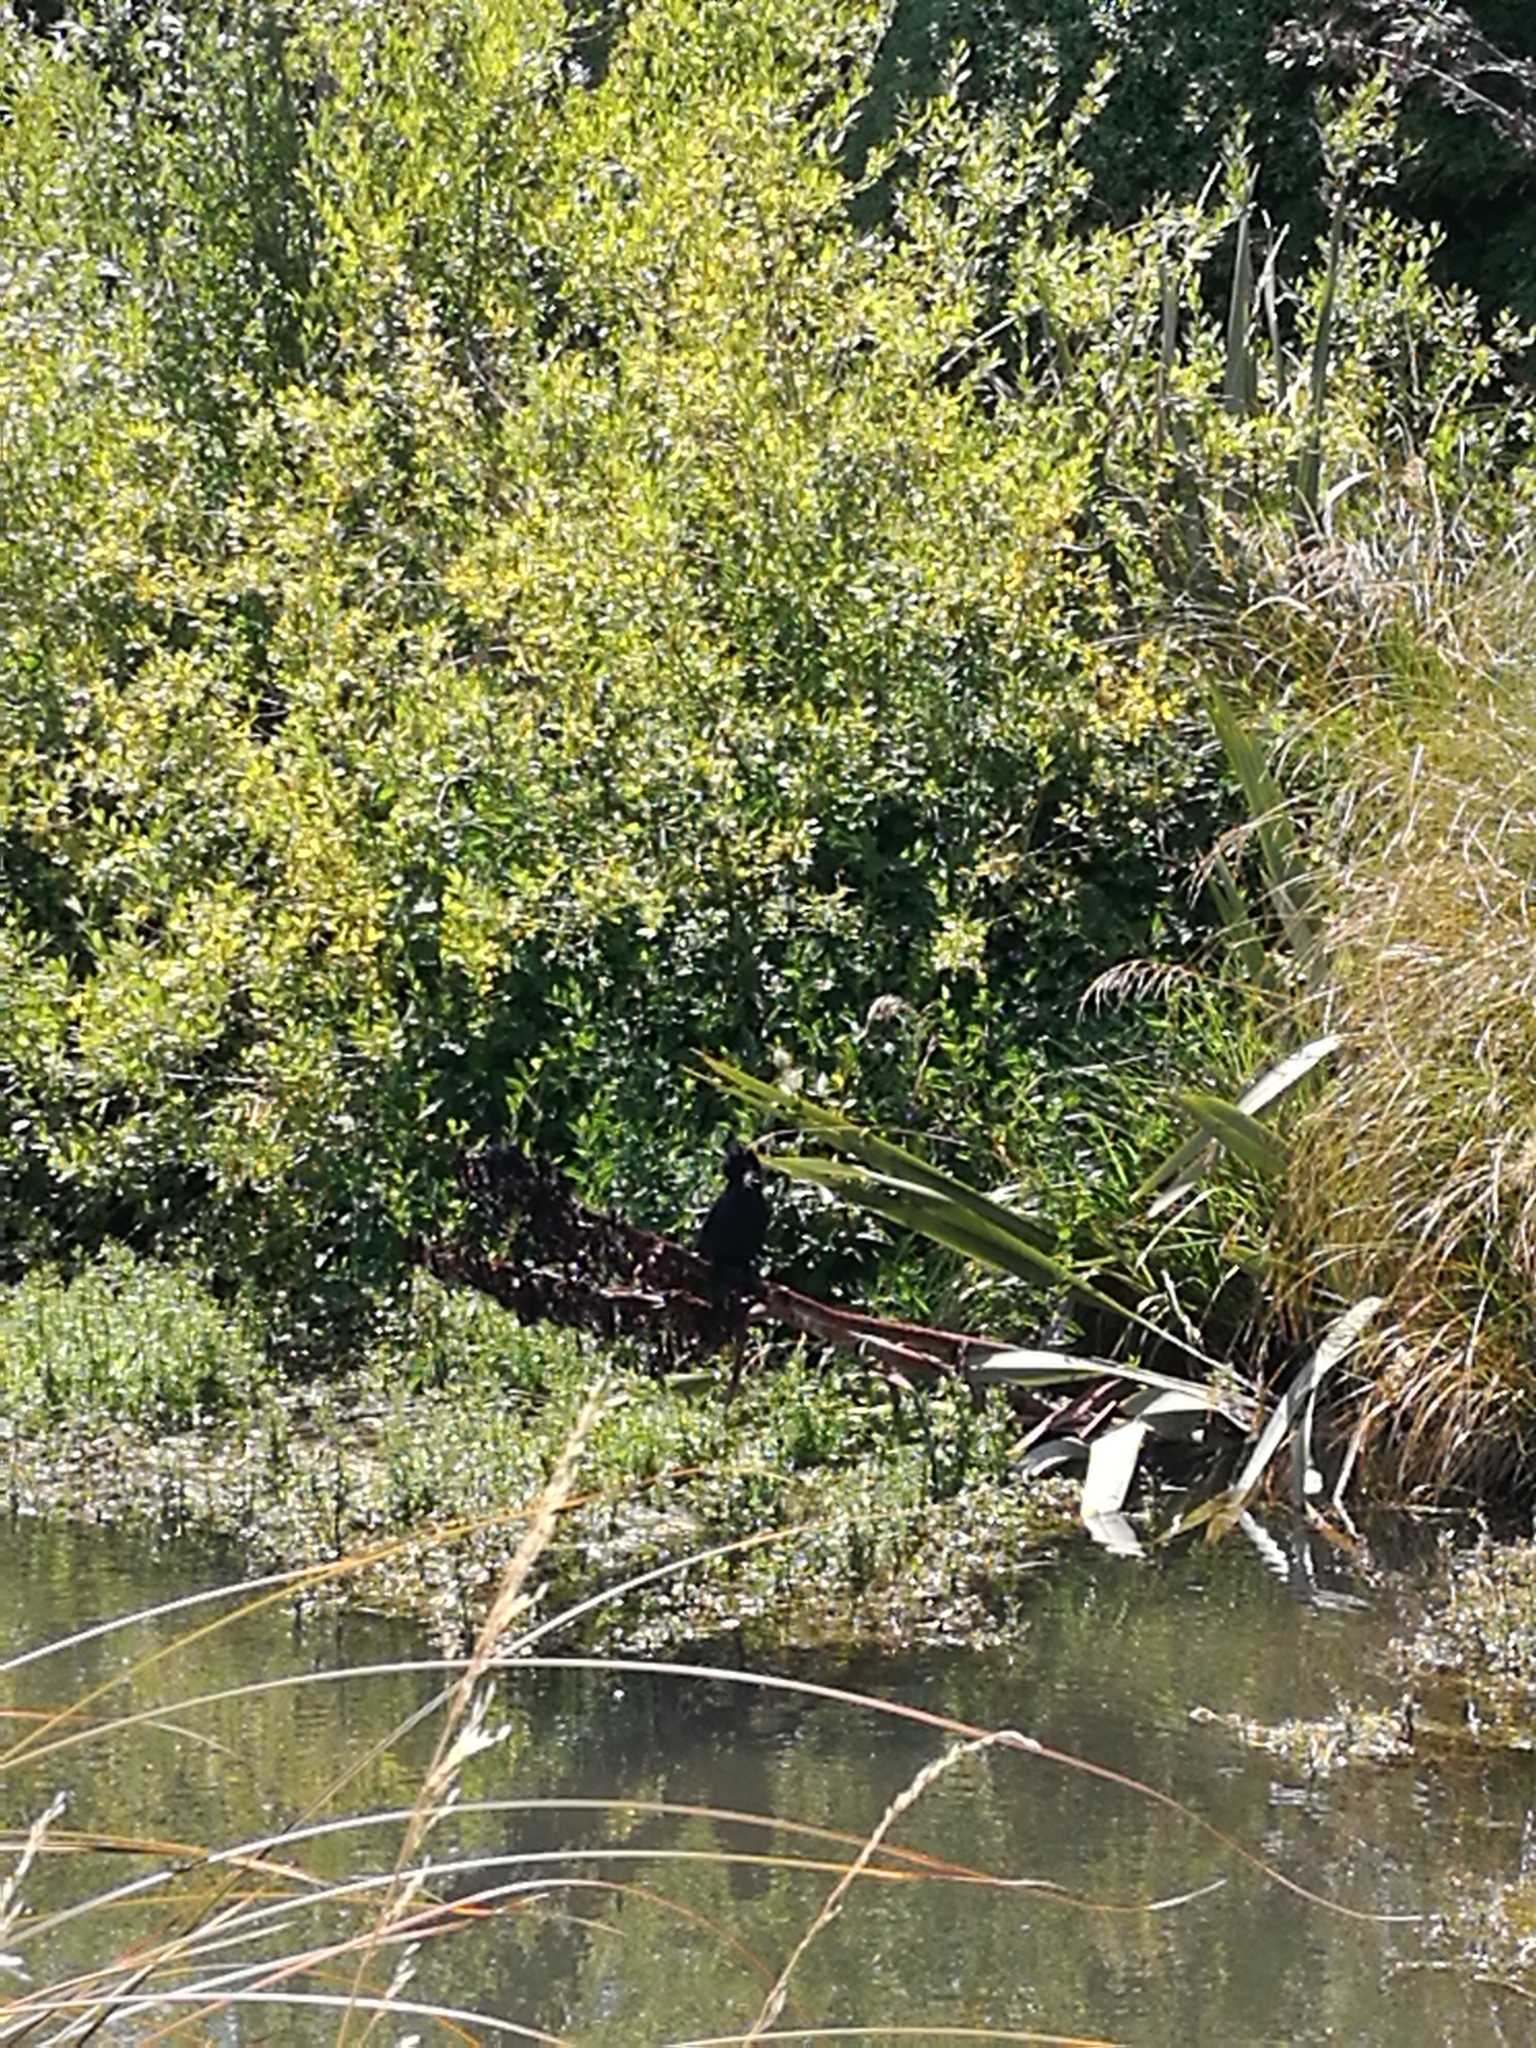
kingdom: Animalia
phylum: Chordata
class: Aves
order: Suliformes
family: Phalacrocoracidae
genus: Microcarbo
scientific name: Microcarbo melanoleucos
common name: Little pied cormorant
